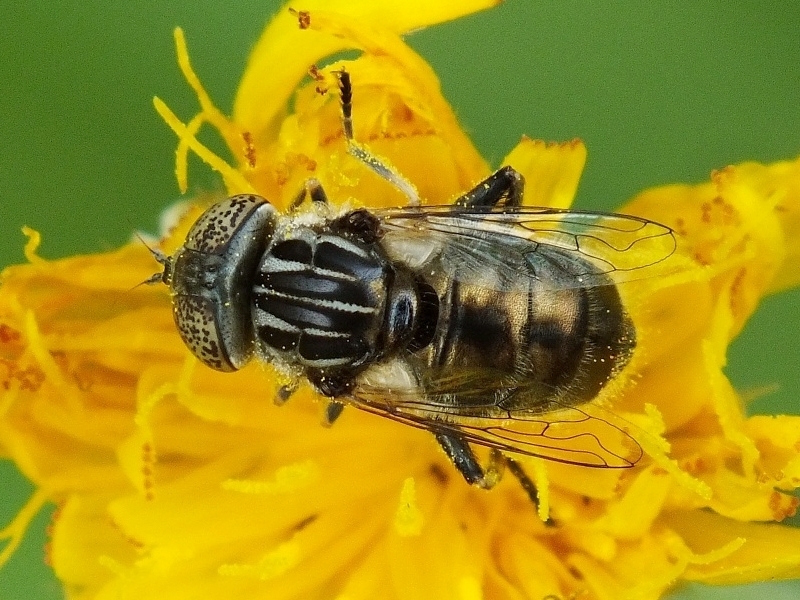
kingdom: Animalia
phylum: Arthropoda
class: Insecta
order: Diptera
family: Syrphidae
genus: Eristalinus
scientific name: Eristalinus sepulchralis
